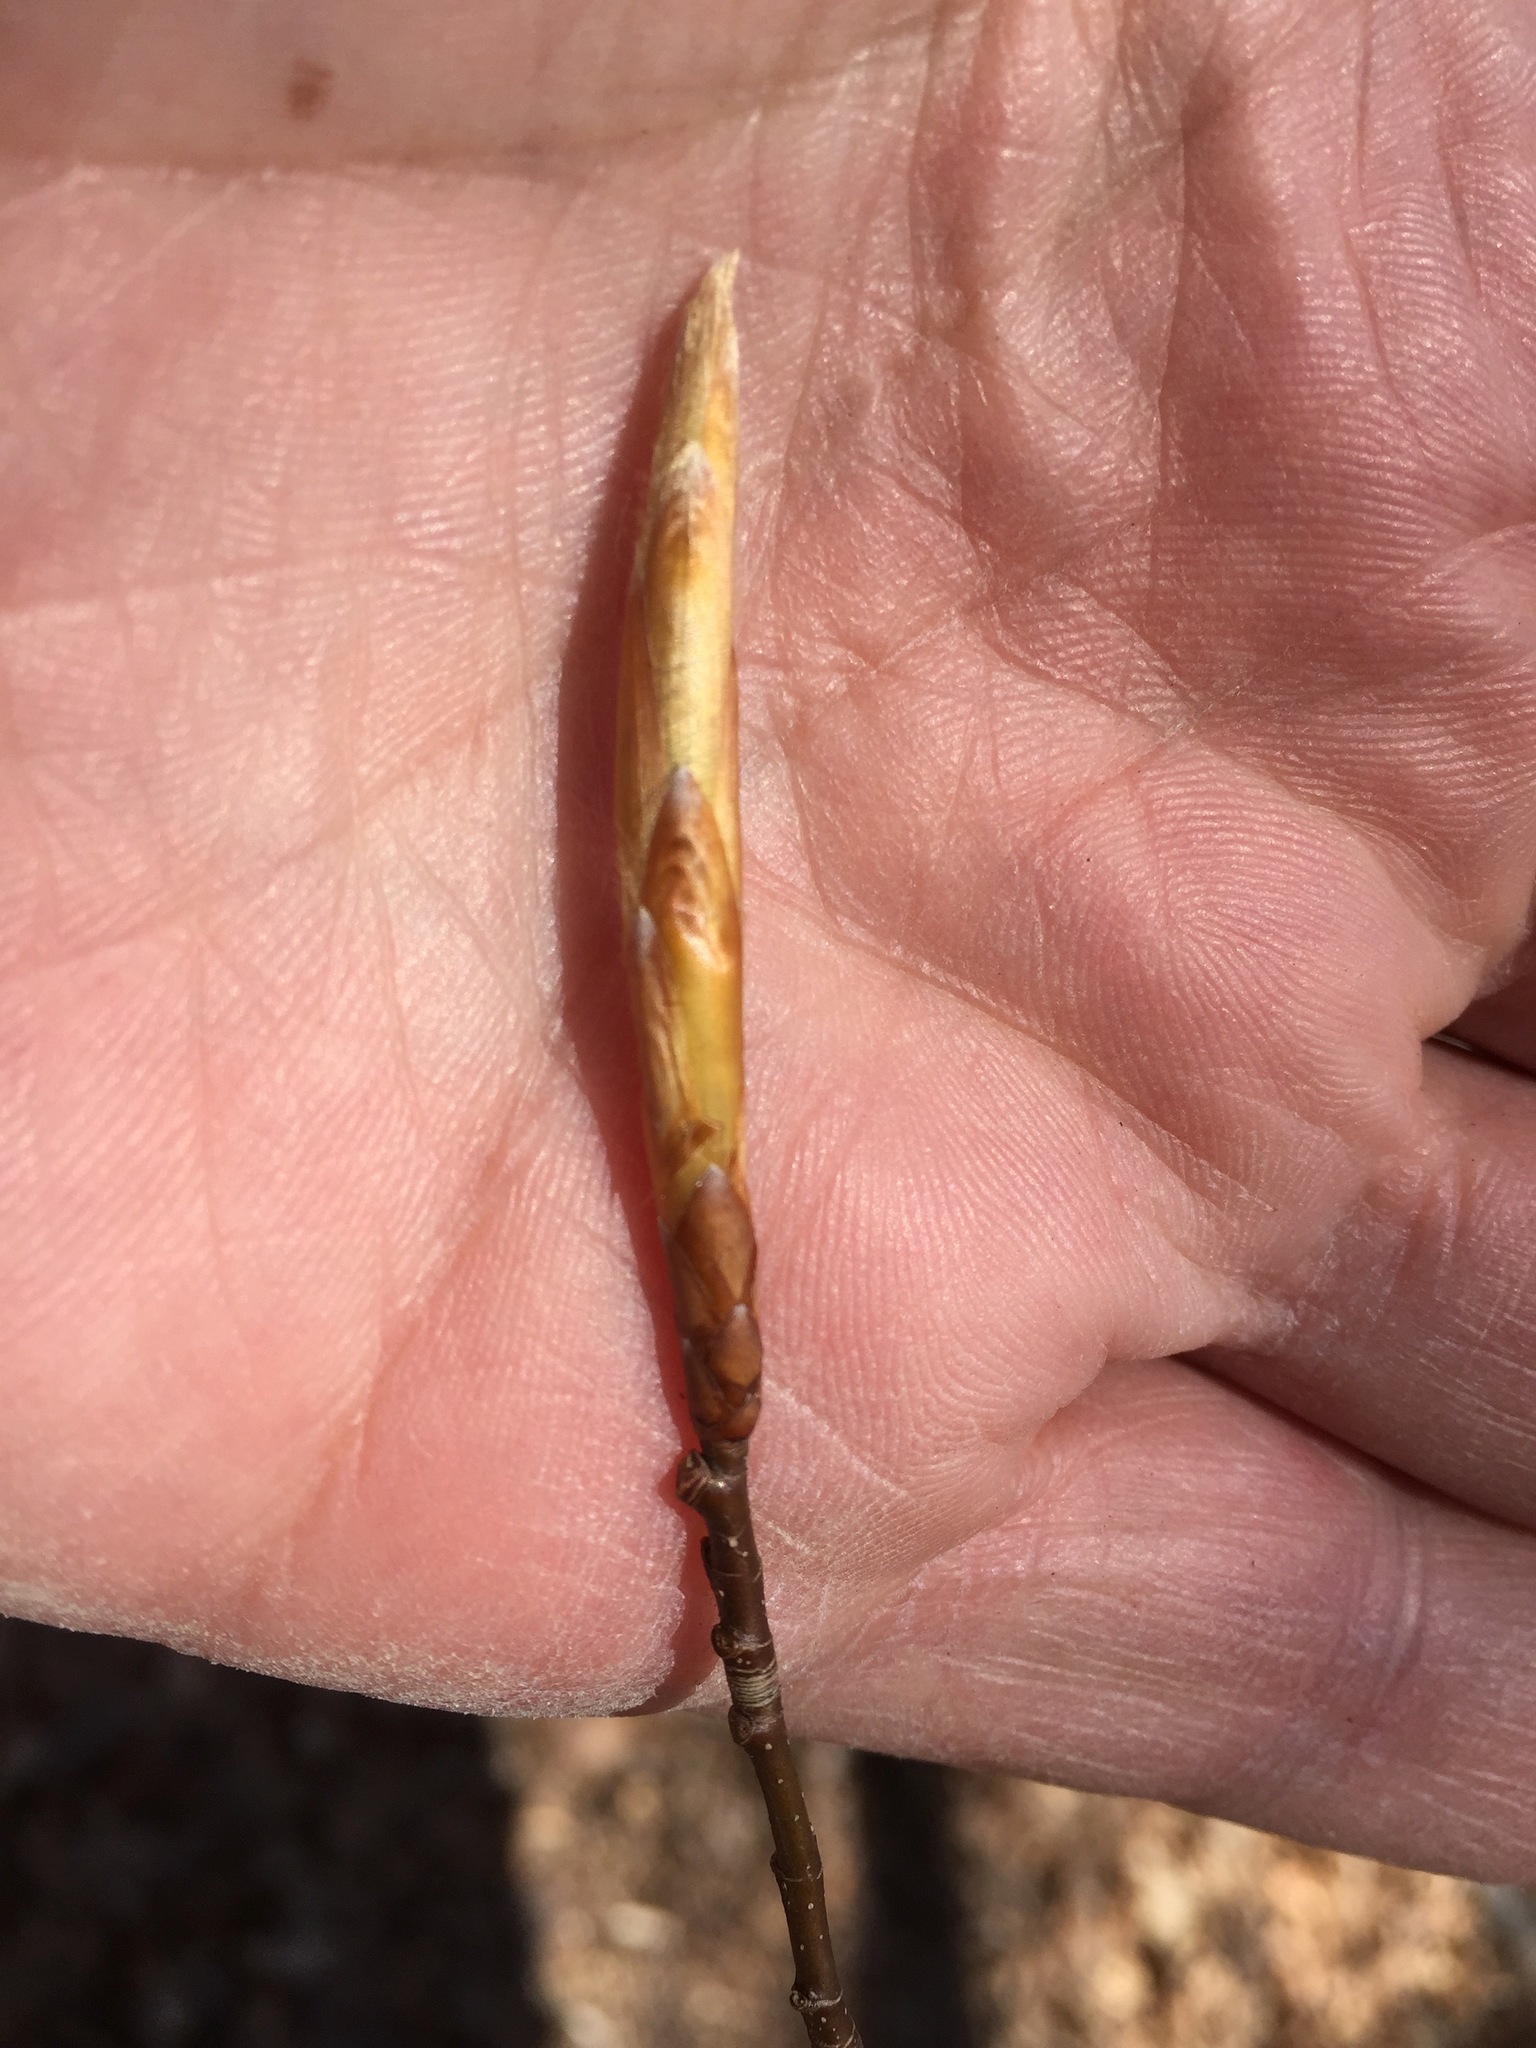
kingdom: Plantae
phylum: Tracheophyta
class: Magnoliopsida
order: Fagales
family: Fagaceae
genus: Fagus
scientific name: Fagus grandifolia
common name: American beech
